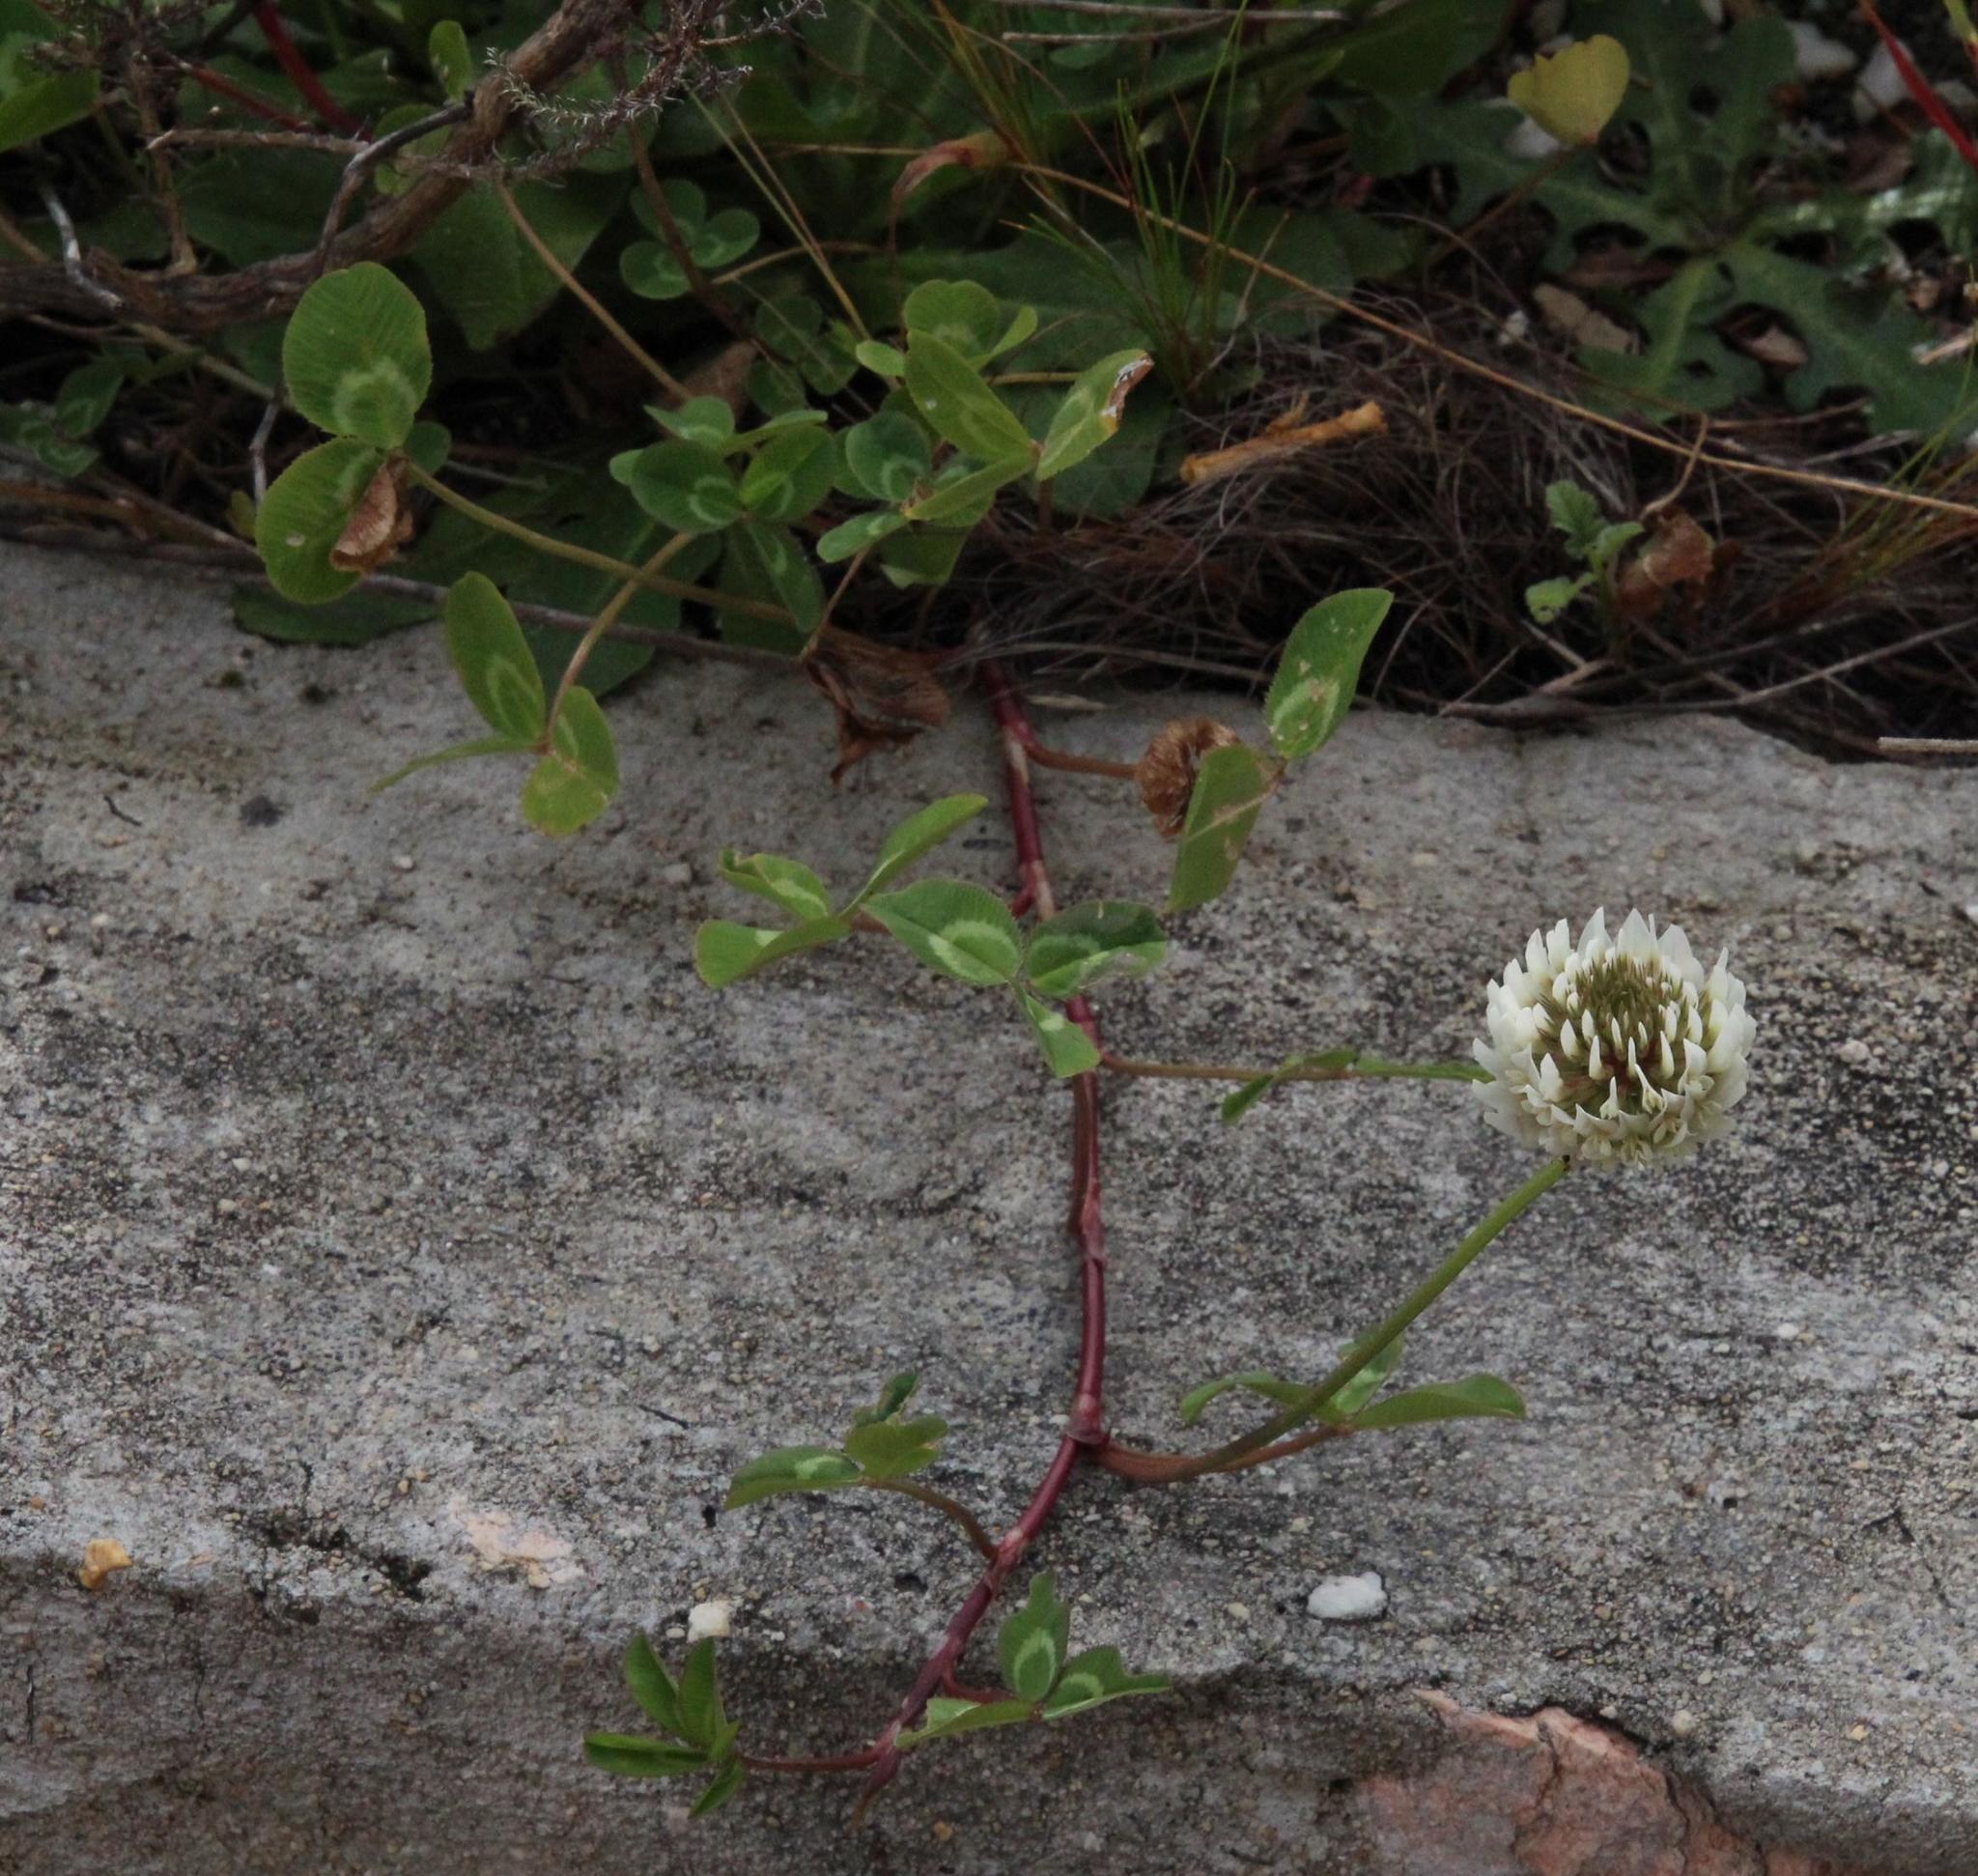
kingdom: Plantae
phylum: Tracheophyta
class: Magnoliopsida
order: Fabales
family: Fabaceae
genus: Trifolium
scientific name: Trifolium repens
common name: White clover
